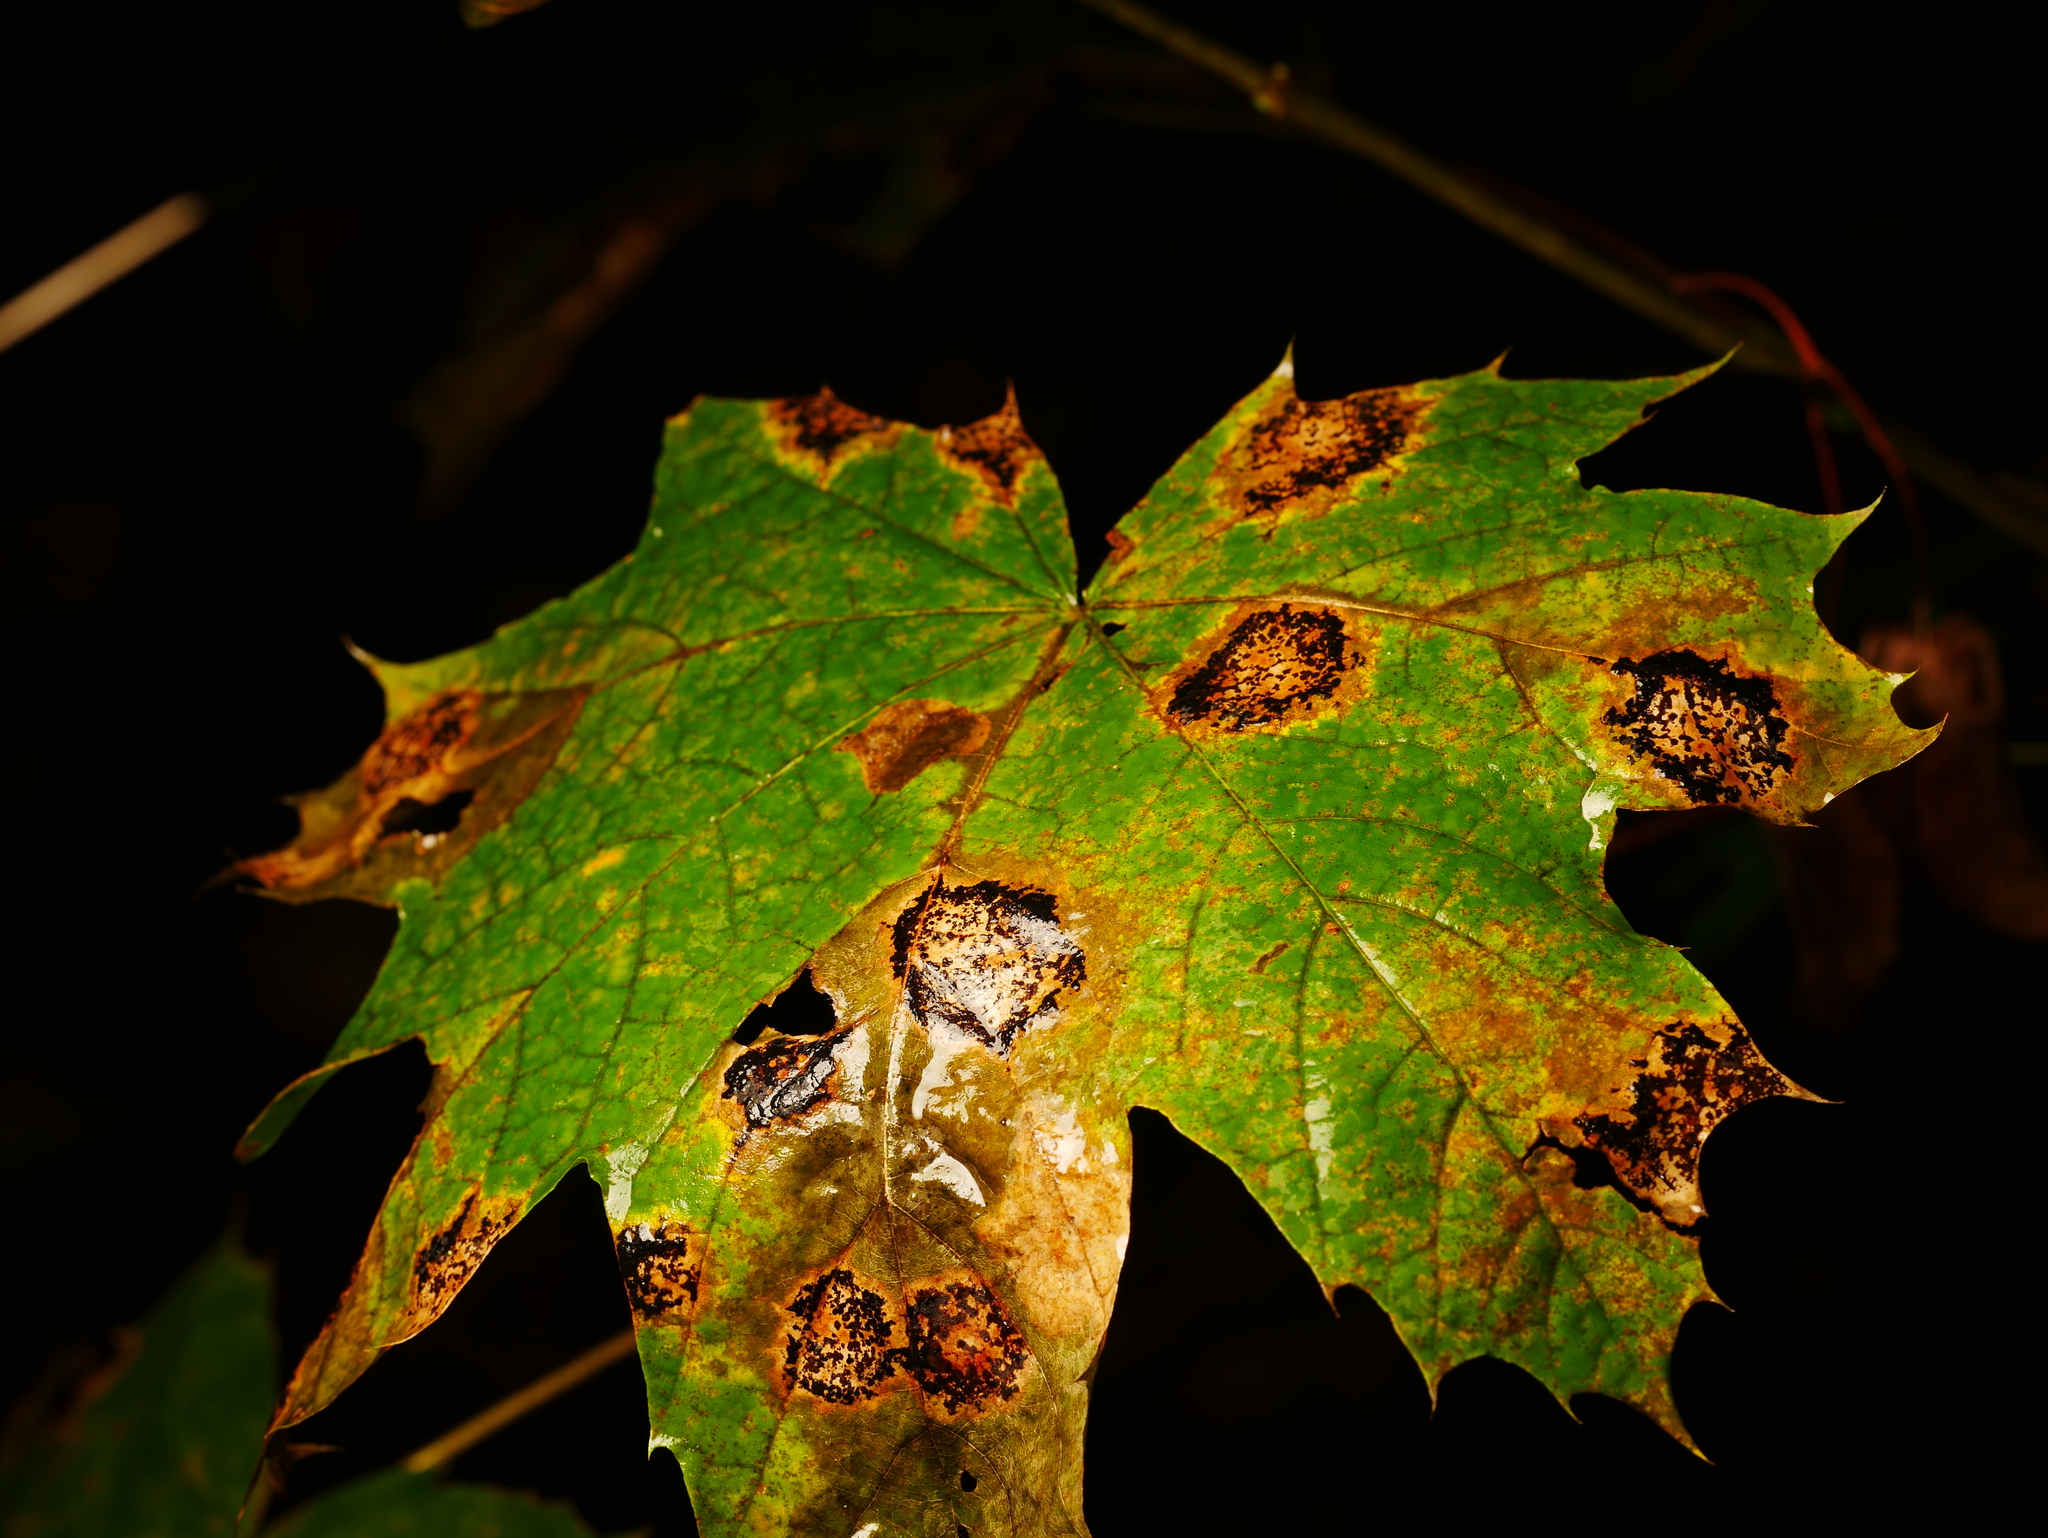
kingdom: Fungi
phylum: Ascomycota
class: Leotiomycetes
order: Rhytismatales
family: Rhytismataceae
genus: Rhytisma
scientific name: Rhytisma acerinum
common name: European tar spot
